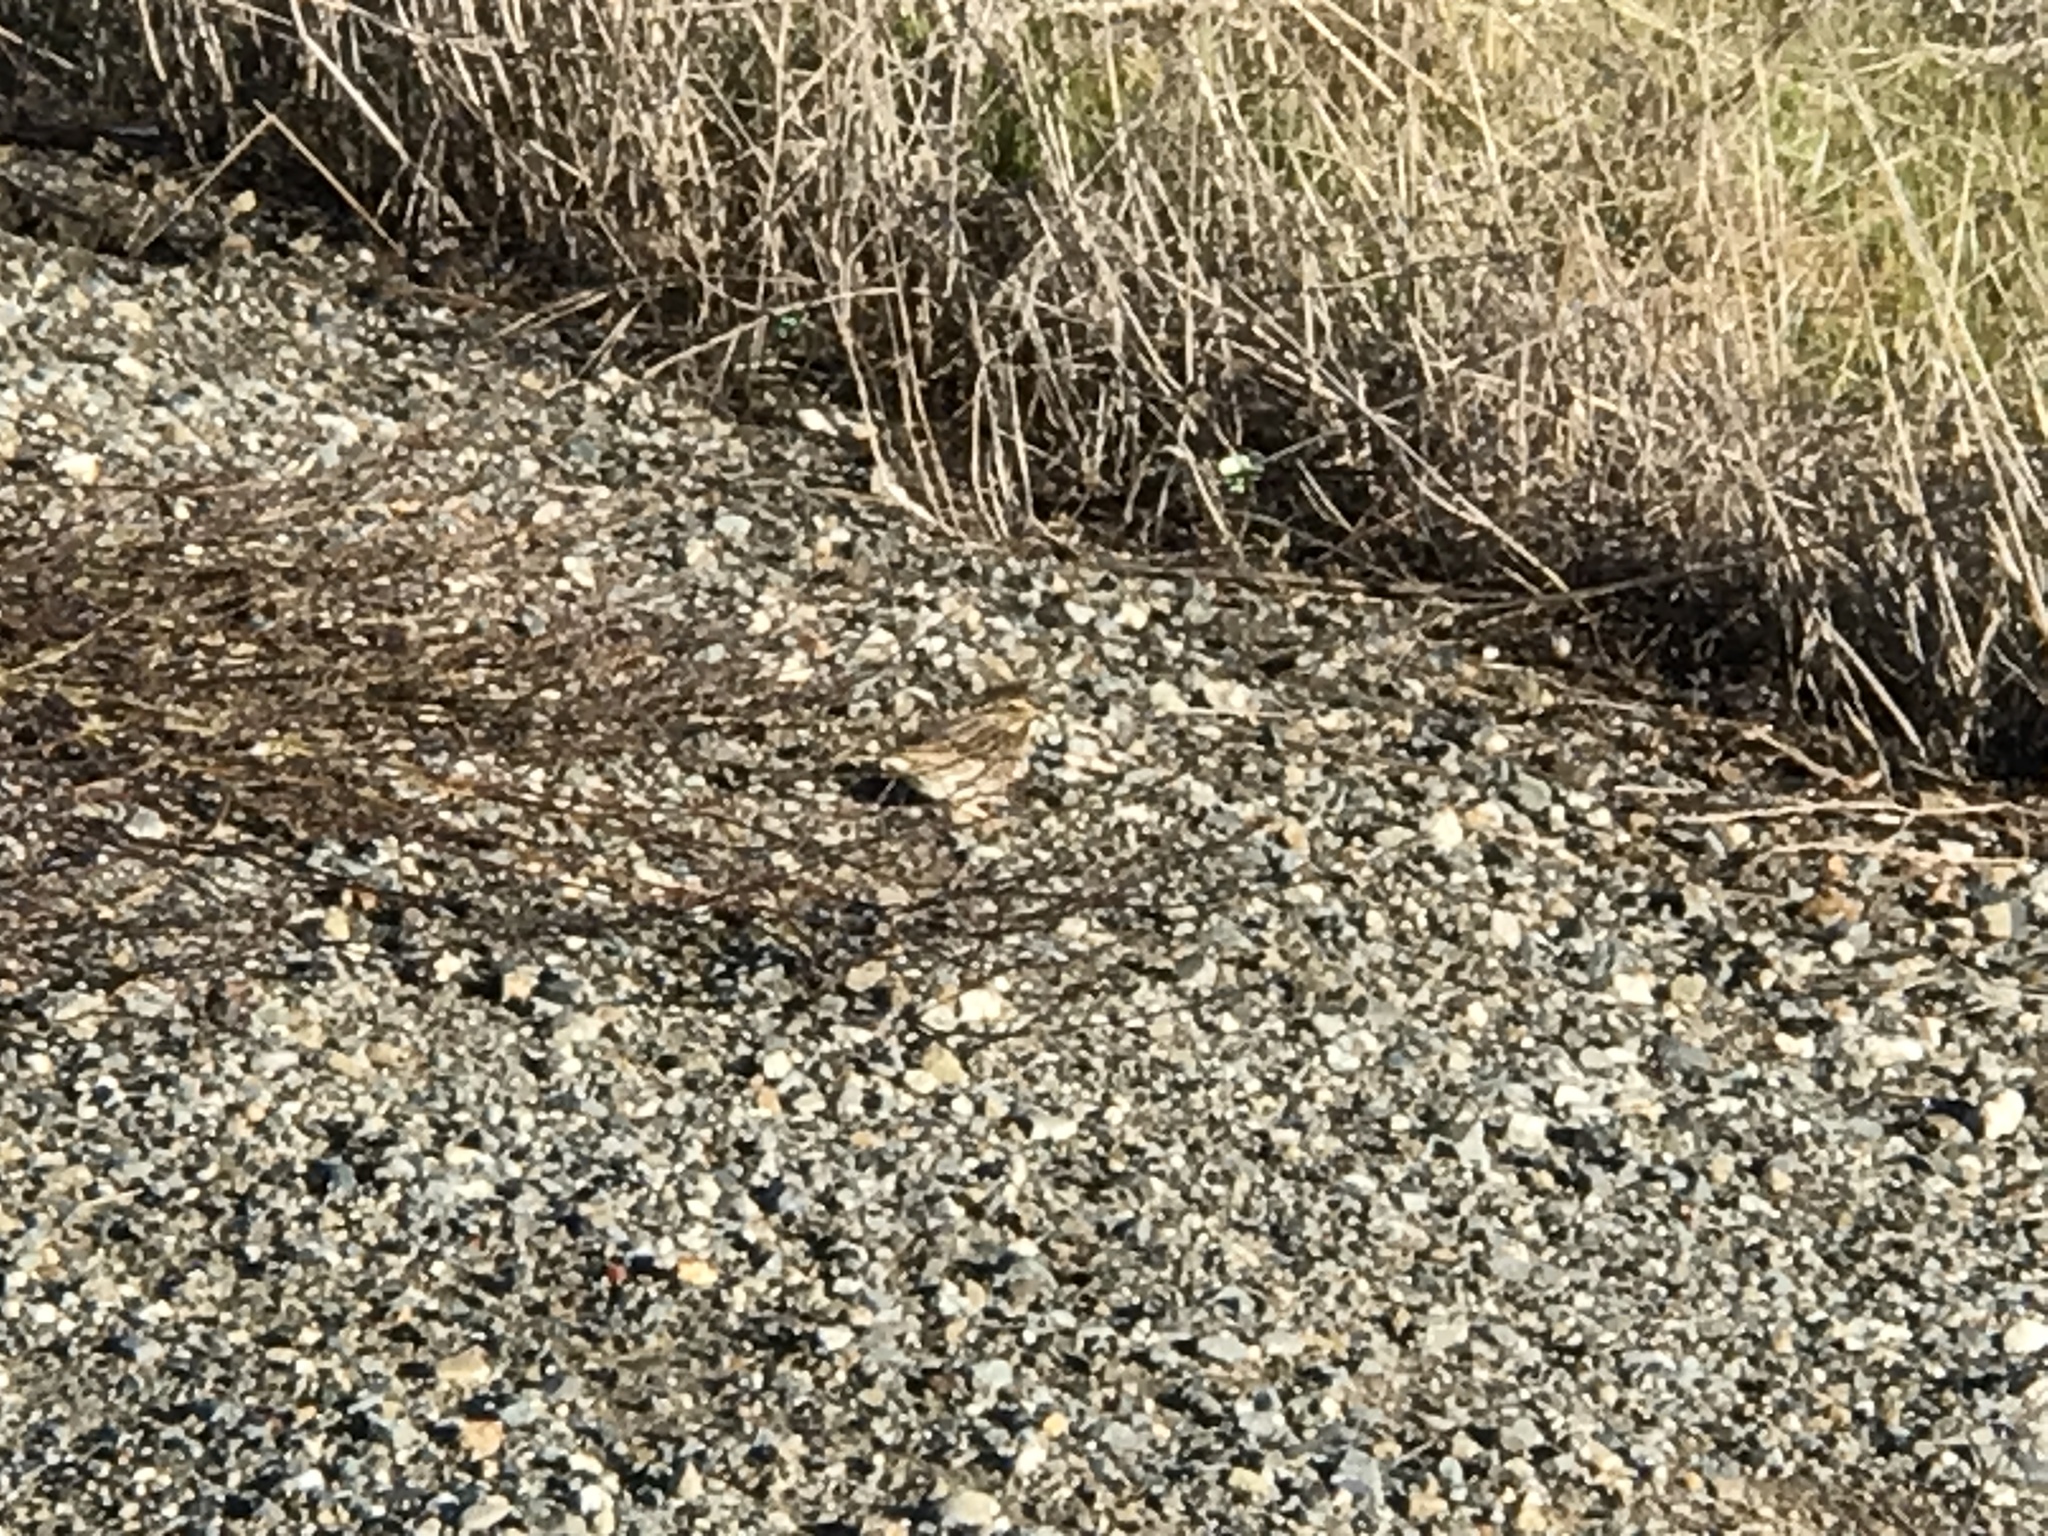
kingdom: Animalia
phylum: Chordata
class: Aves
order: Passeriformes
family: Passerellidae
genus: Passerculus
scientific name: Passerculus sandwichensis
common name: Savannah sparrow
